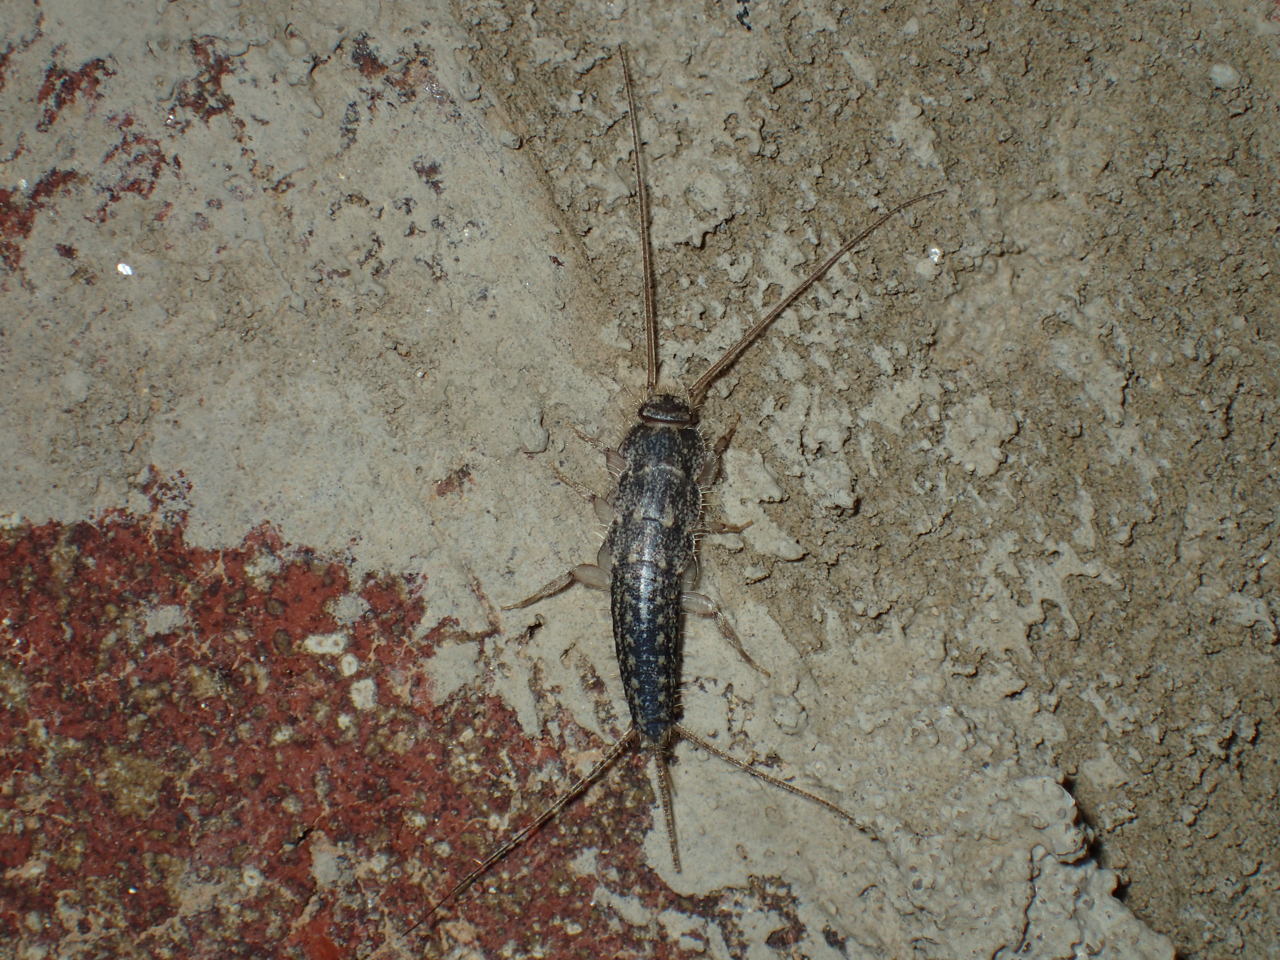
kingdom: Animalia
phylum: Arthropoda
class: Insecta
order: Zygentoma
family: Lepismatidae
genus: Ctenolepisma
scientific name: Ctenolepisma lineata
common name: Four-lined silverfish
